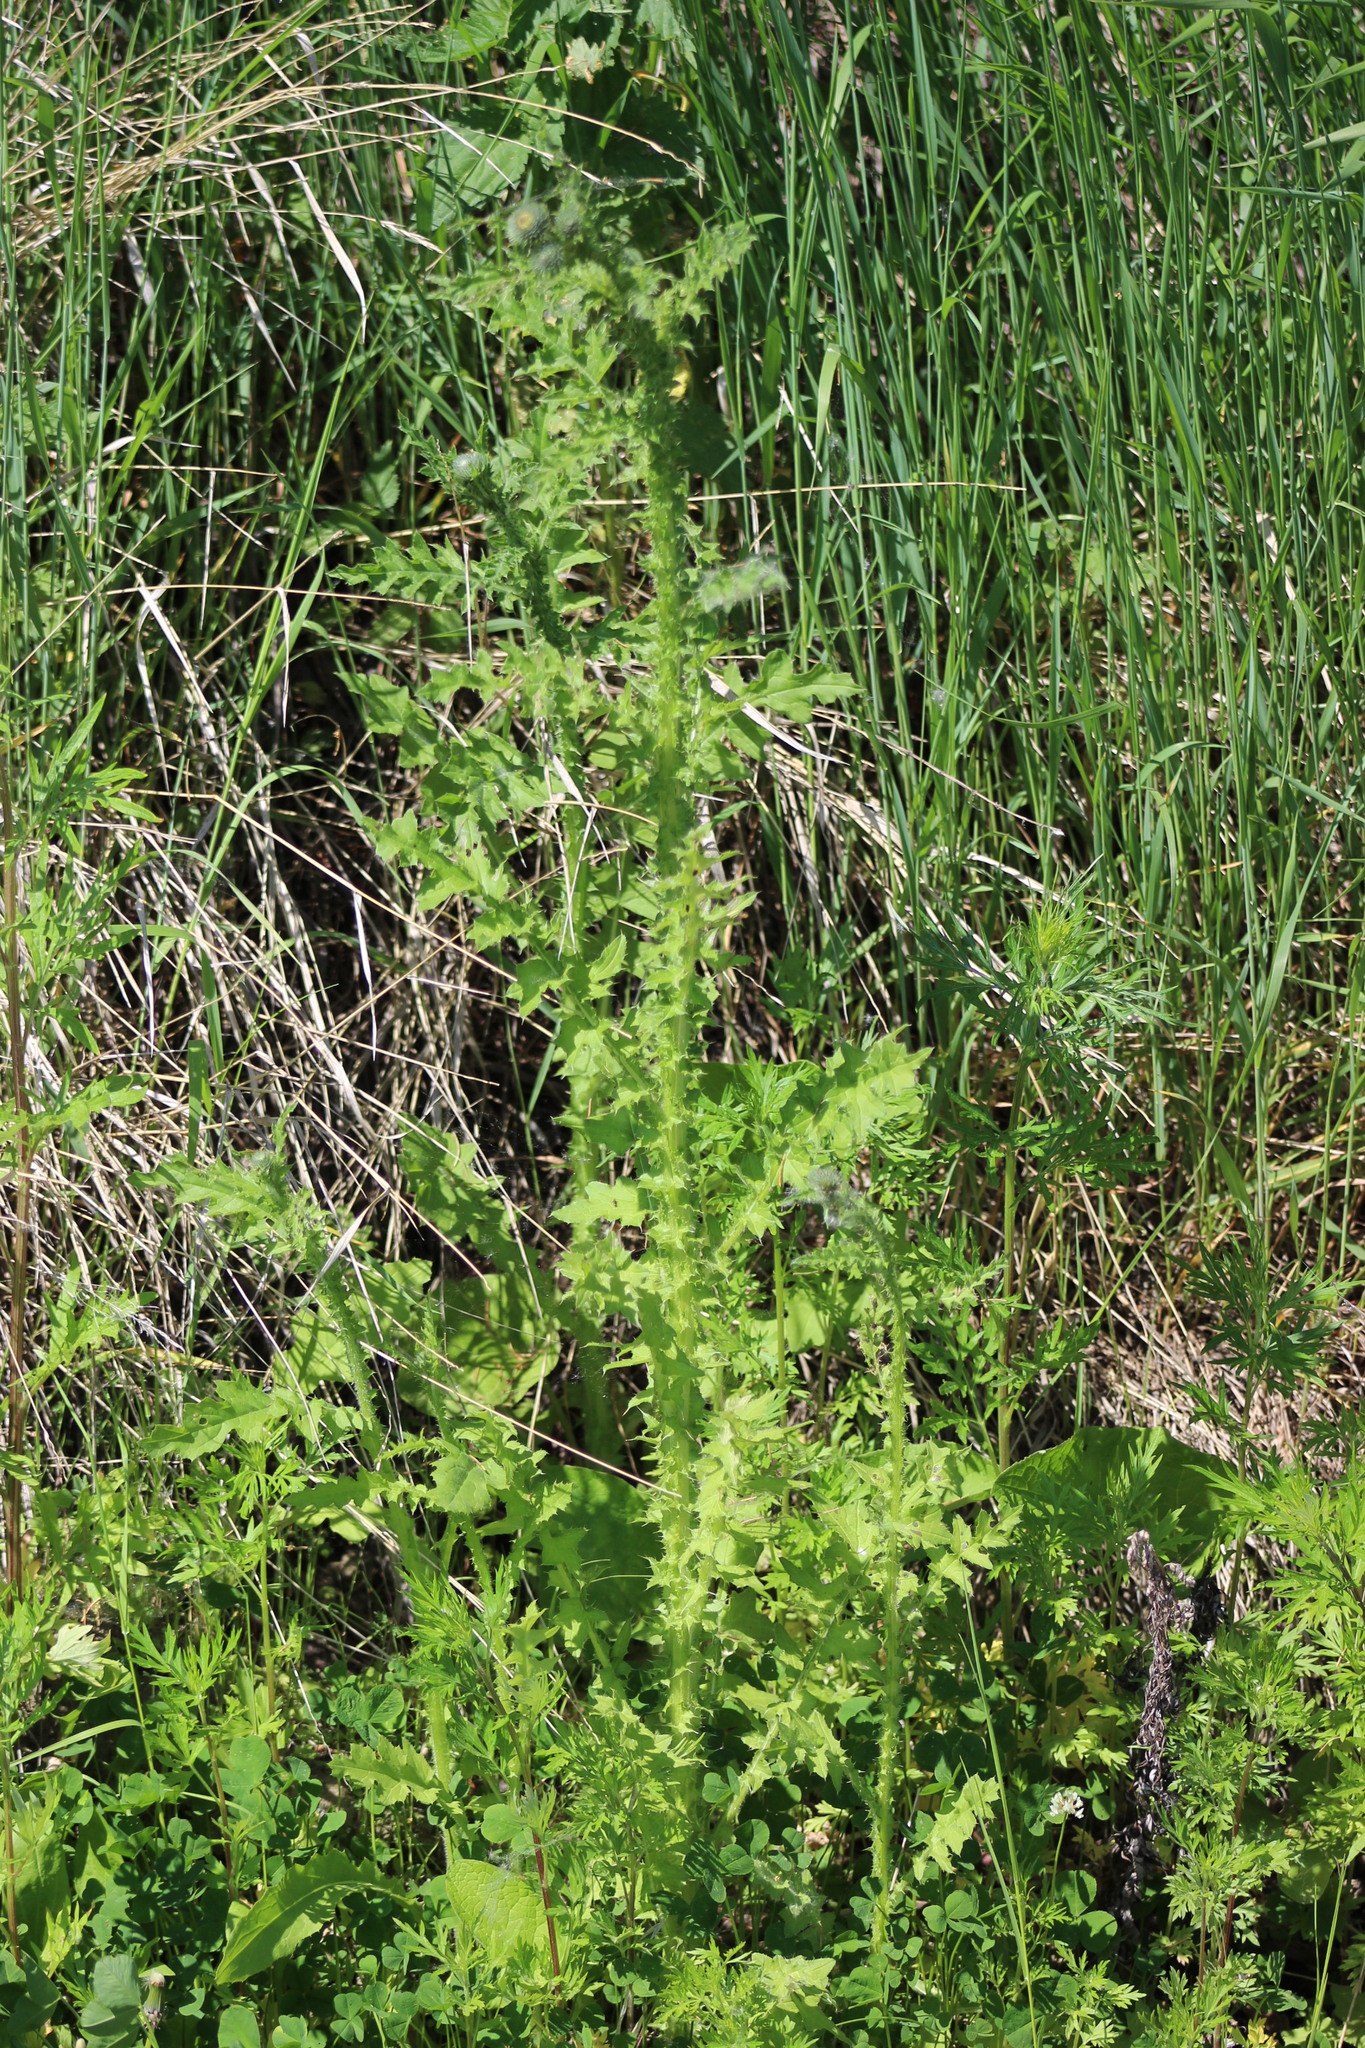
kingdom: Plantae
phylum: Tracheophyta
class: Magnoliopsida
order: Asterales
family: Asteraceae
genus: Carduus
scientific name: Carduus crispus
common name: Welted thistle
